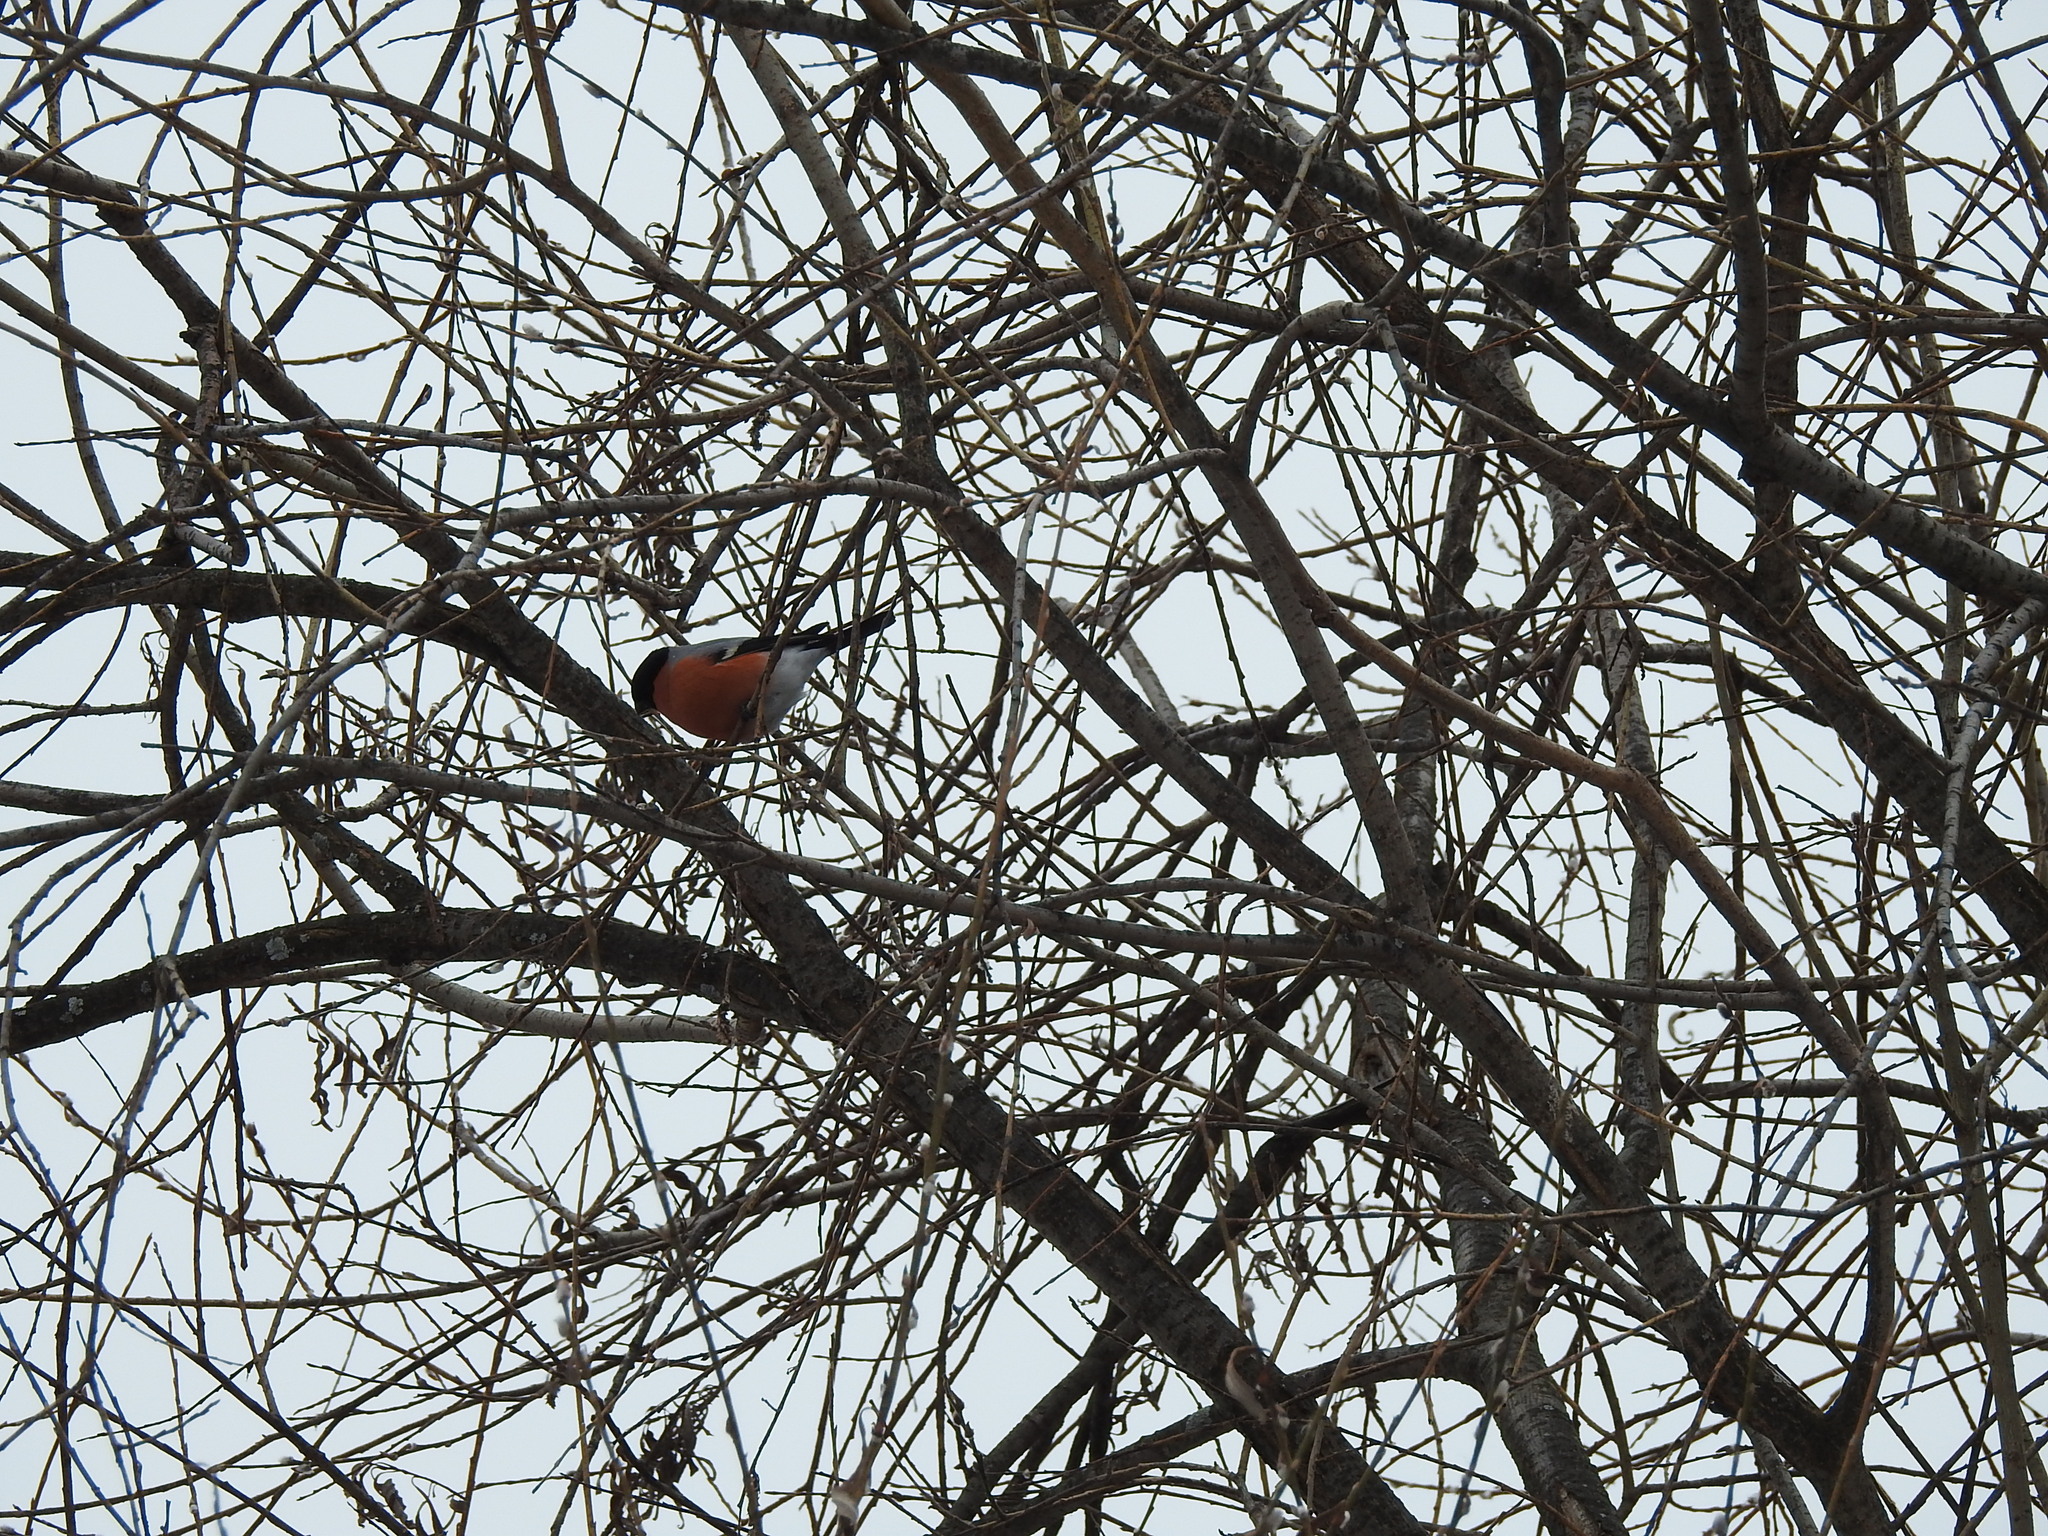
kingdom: Animalia
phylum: Chordata
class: Aves
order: Passeriformes
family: Fringillidae
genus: Pyrrhula
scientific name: Pyrrhula pyrrhula
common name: Eurasian bullfinch
